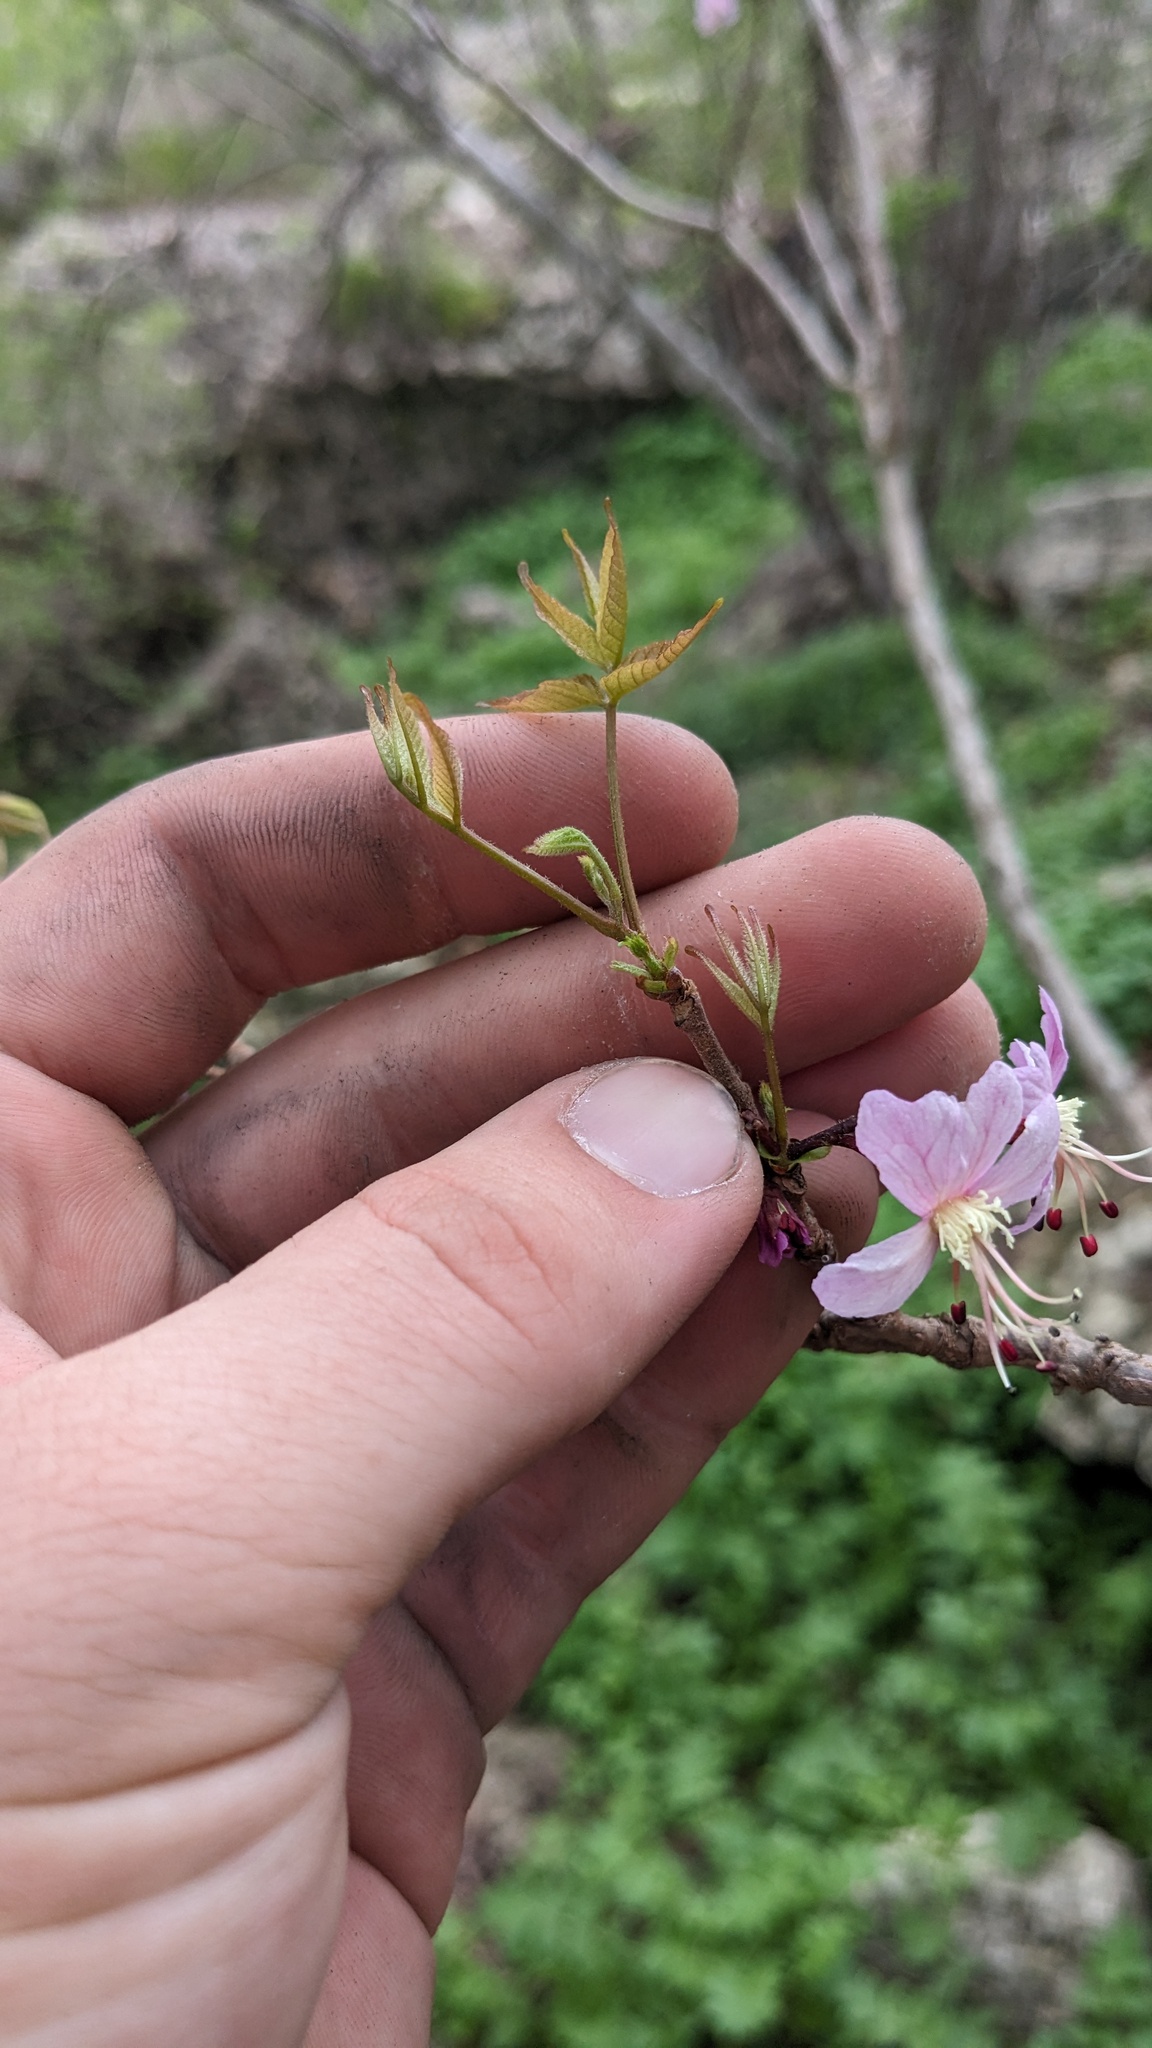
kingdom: Plantae
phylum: Tracheophyta
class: Magnoliopsida
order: Sapindales
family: Sapindaceae
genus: Ungnadia
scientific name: Ungnadia speciosa
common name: Texas-buckeye
